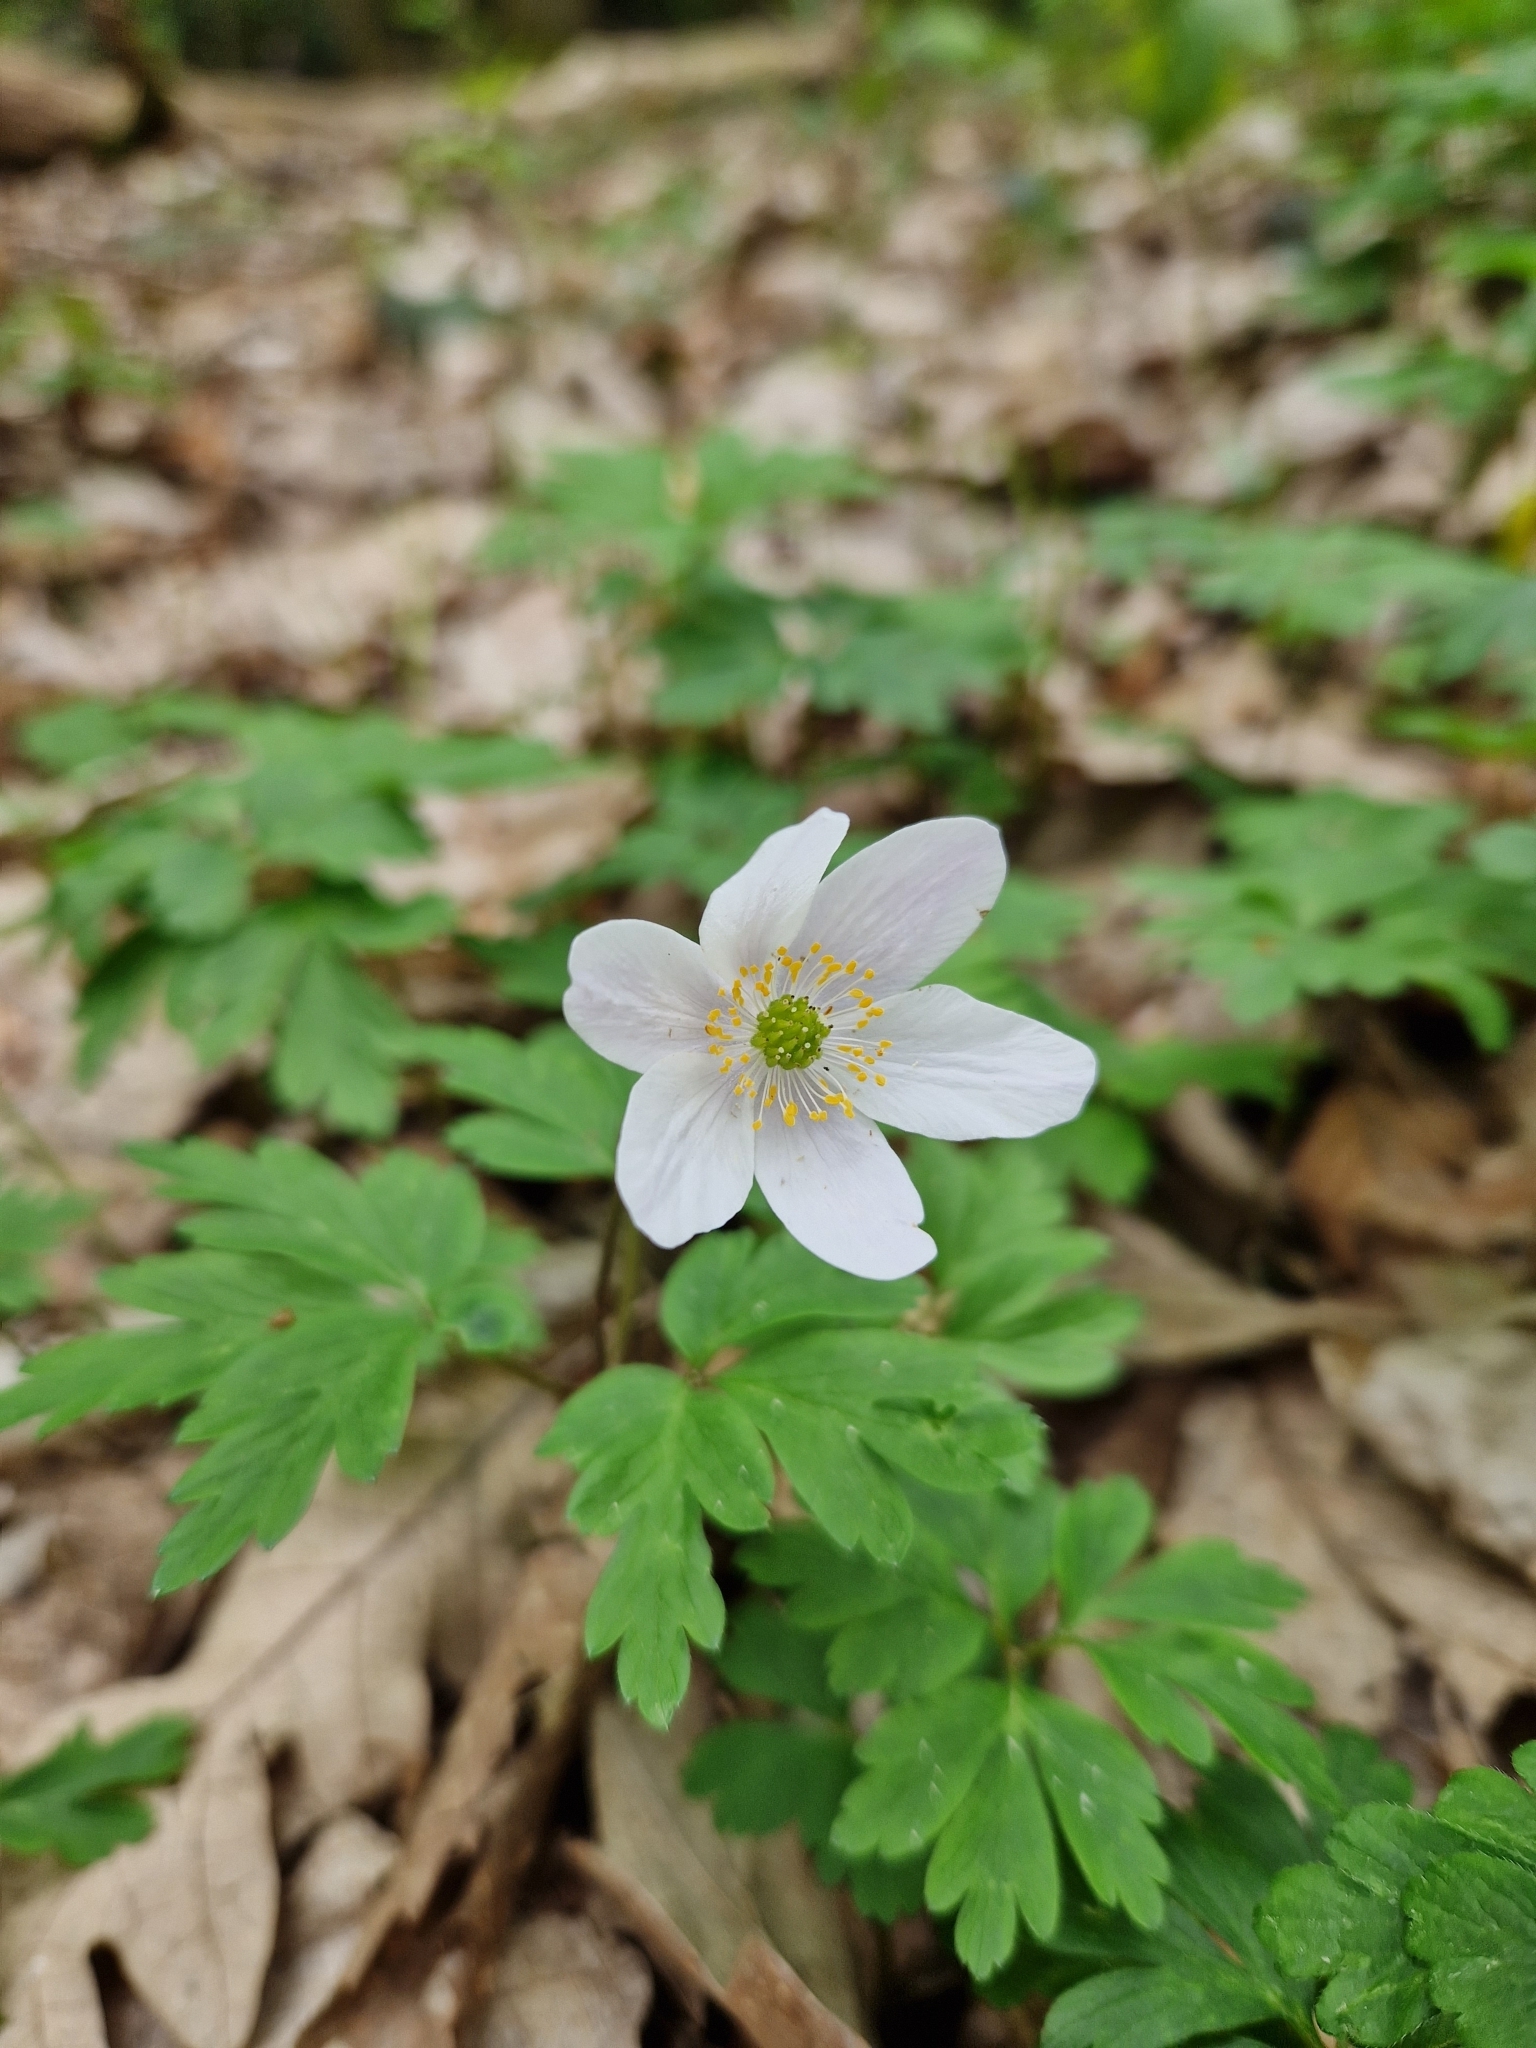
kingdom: Plantae
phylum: Tracheophyta
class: Magnoliopsida
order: Ranunculales
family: Ranunculaceae
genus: Anemone
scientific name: Anemone nemorosa
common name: Wood anemone
